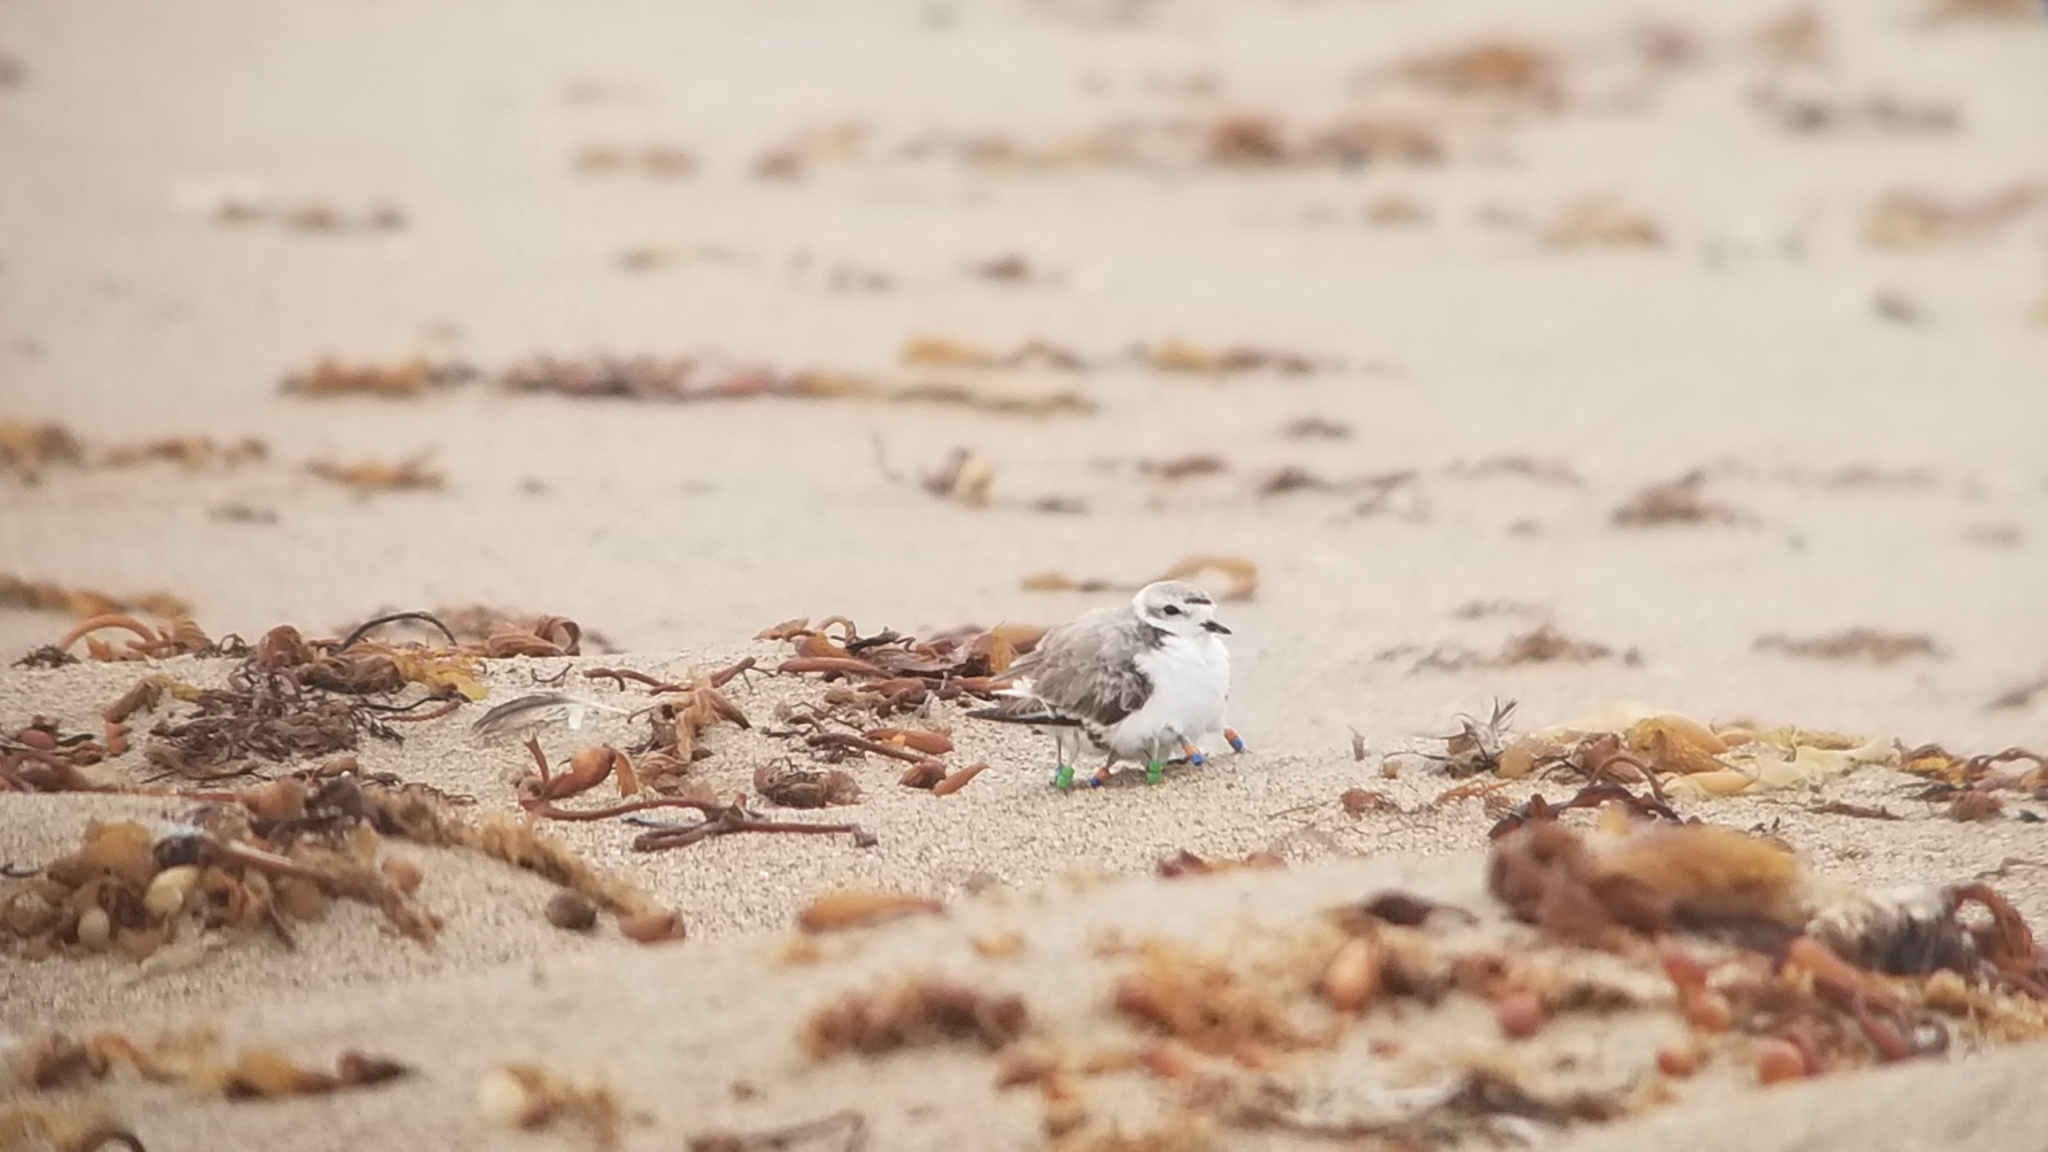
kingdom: Animalia
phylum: Chordata
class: Aves
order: Charadriiformes
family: Charadriidae
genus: Anarhynchus
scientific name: Anarhynchus
